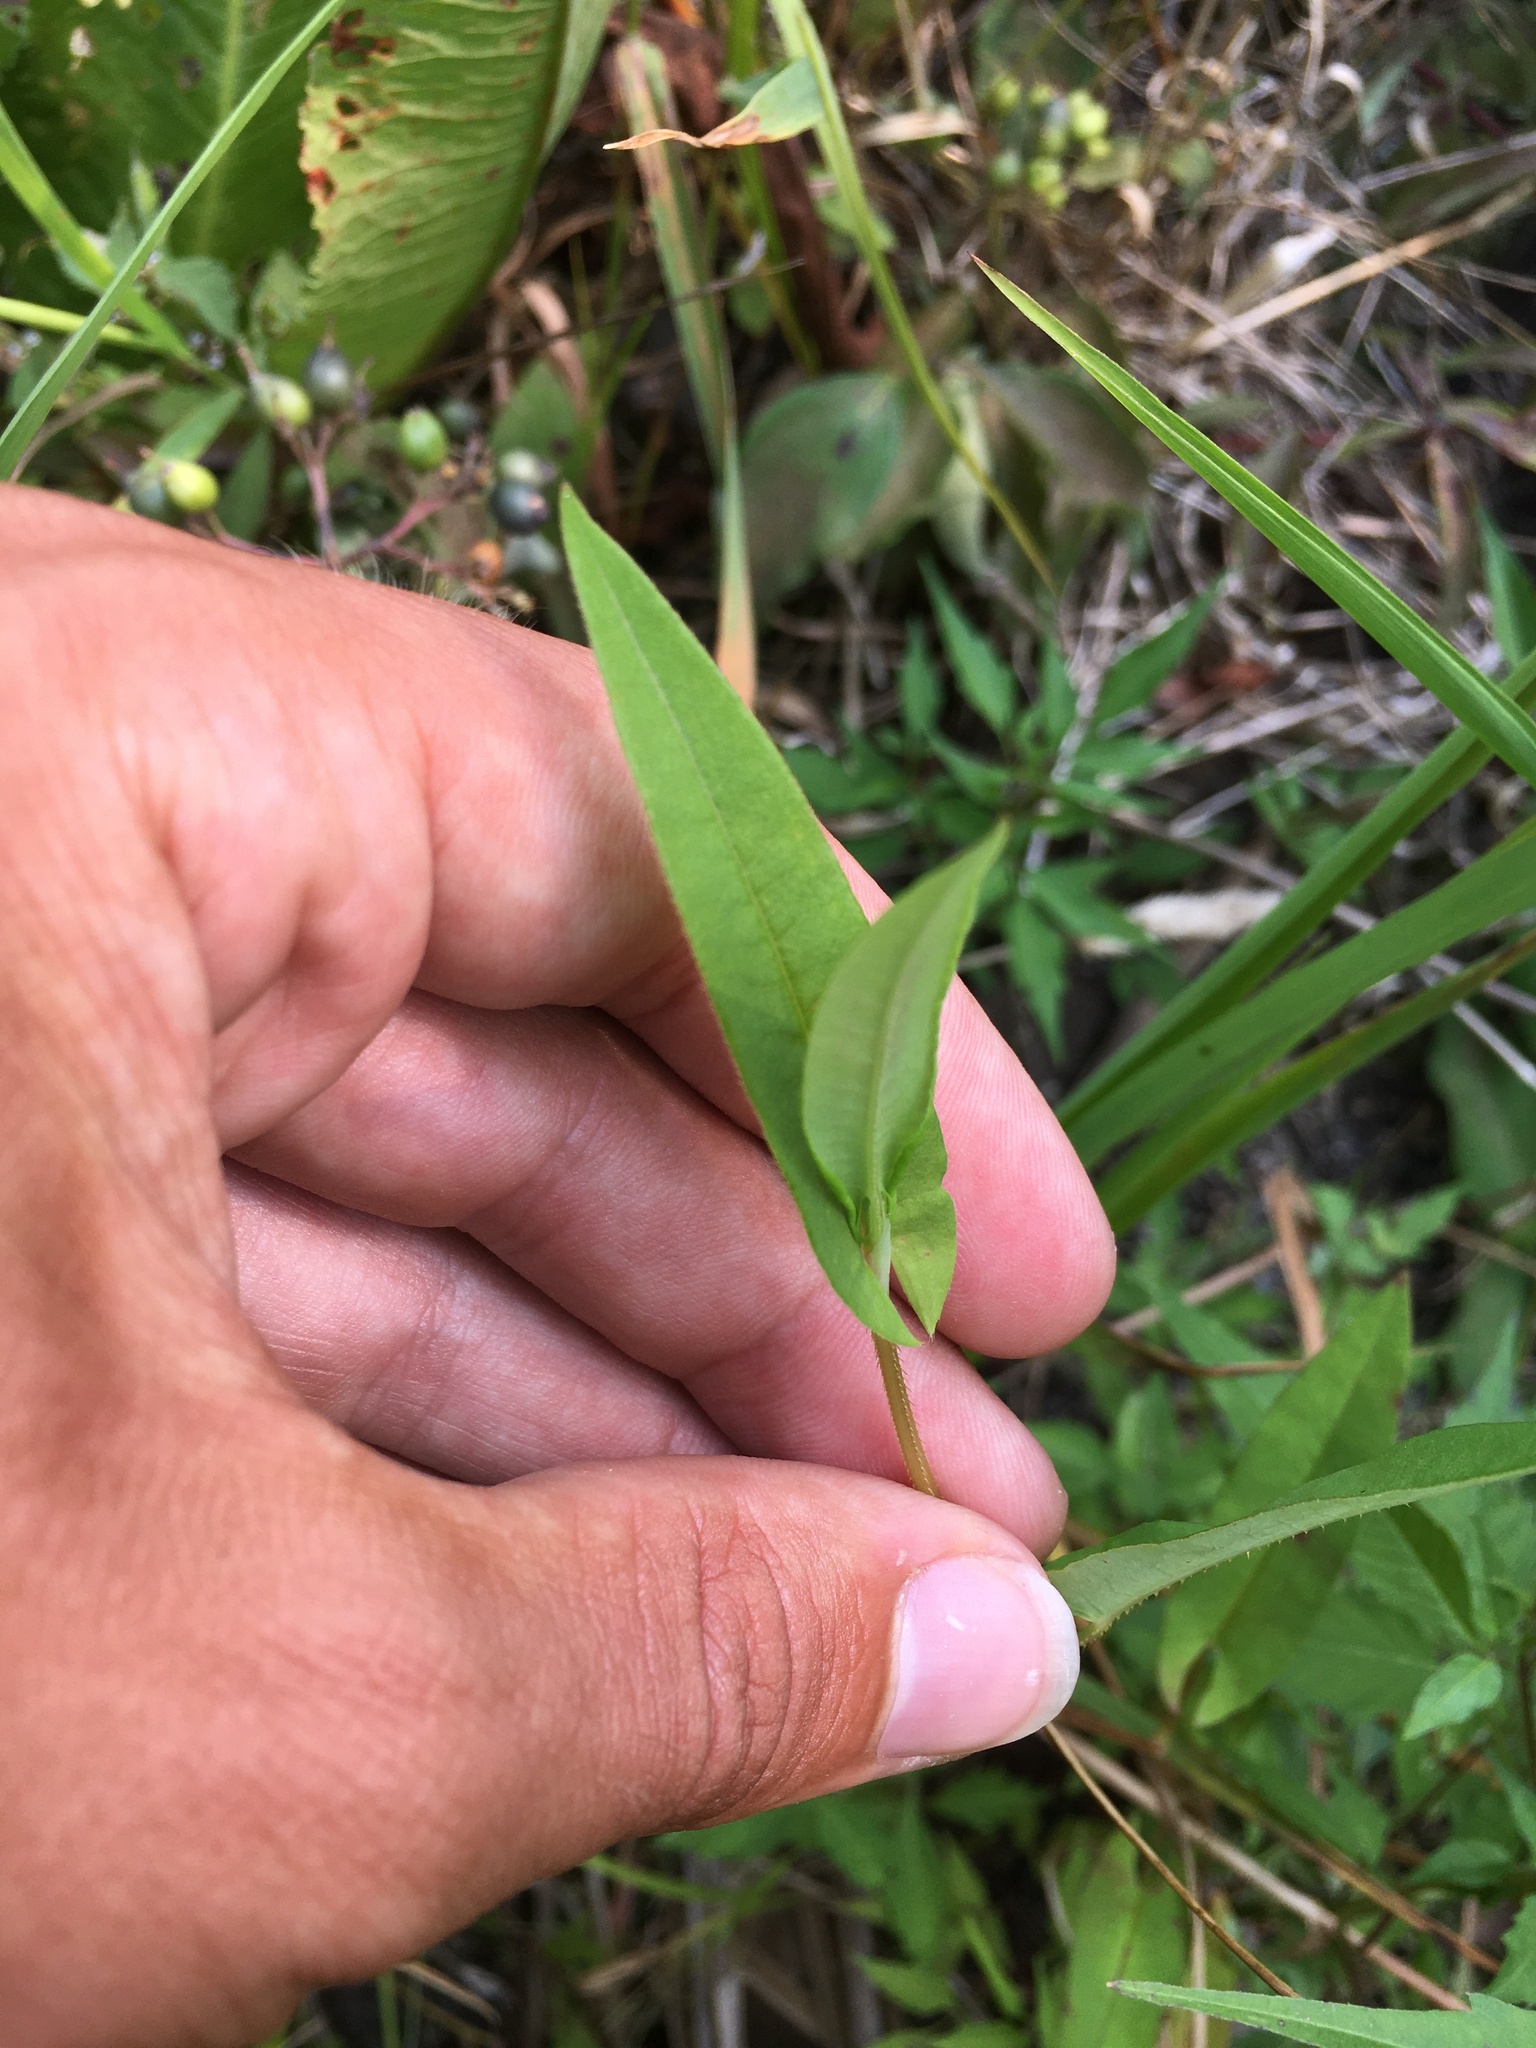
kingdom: Plantae
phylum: Tracheophyta
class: Magnoliopsida
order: Caryophyllales
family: Polygonaceae
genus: Persicaria
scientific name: Persicaria sagittata
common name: American tearthumb
